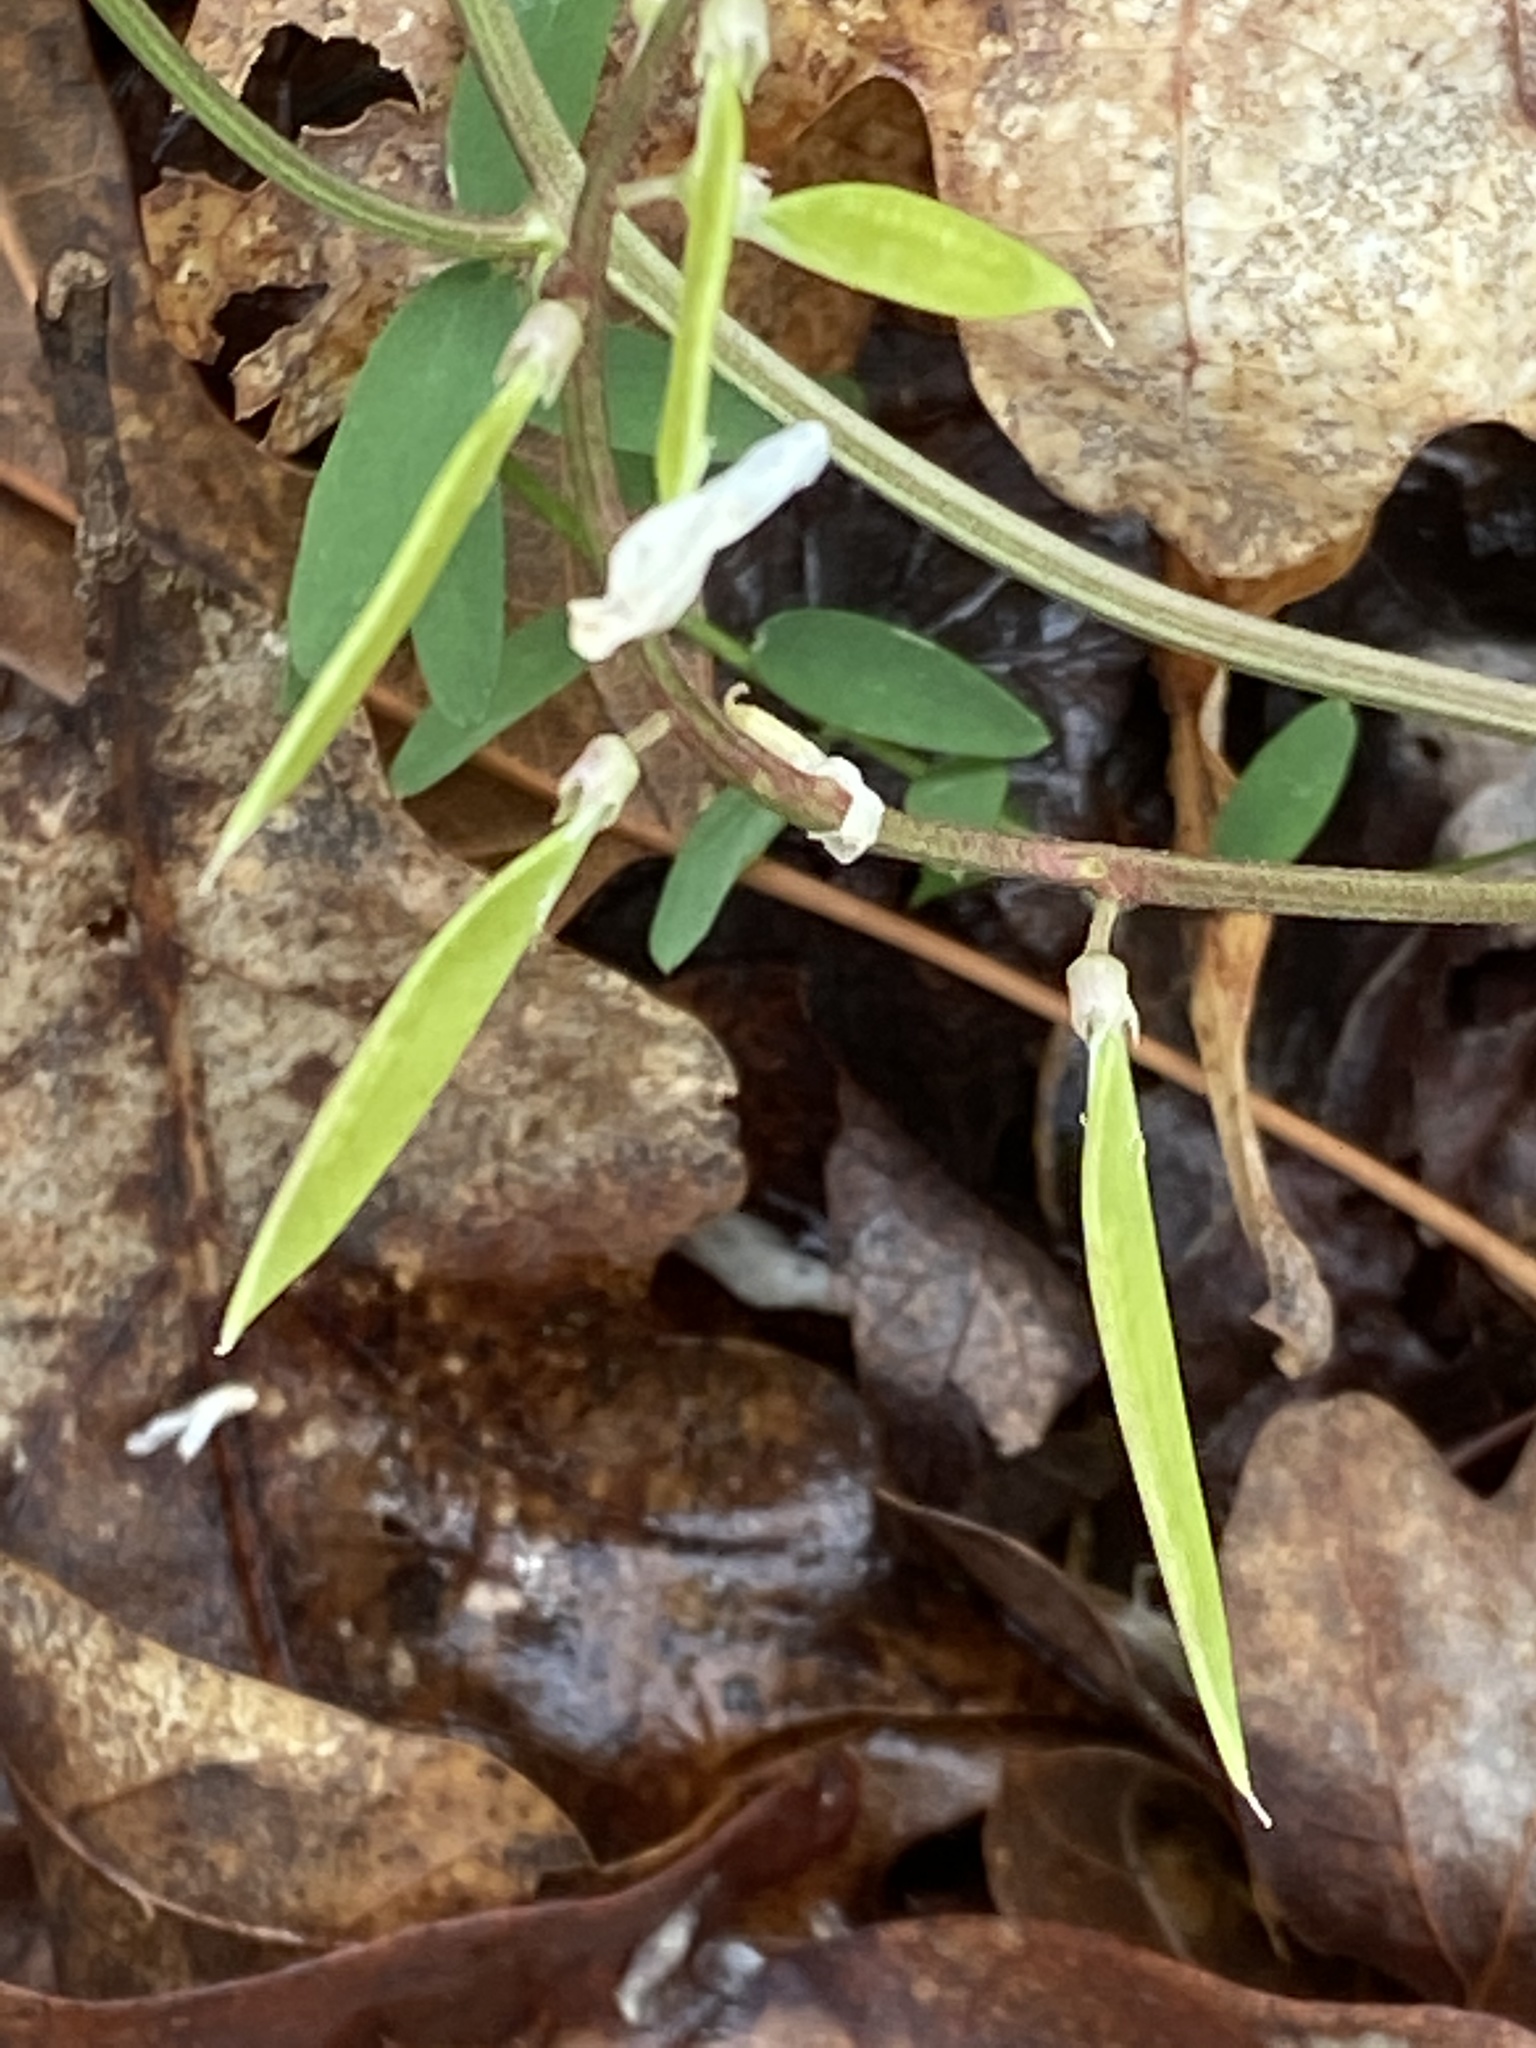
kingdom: Plantae
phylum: Tracheophyta
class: Magnoliopsida
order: Fabales
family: Fabaceae
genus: Vicia
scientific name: Vicia caroliniana
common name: Carolina vetch
